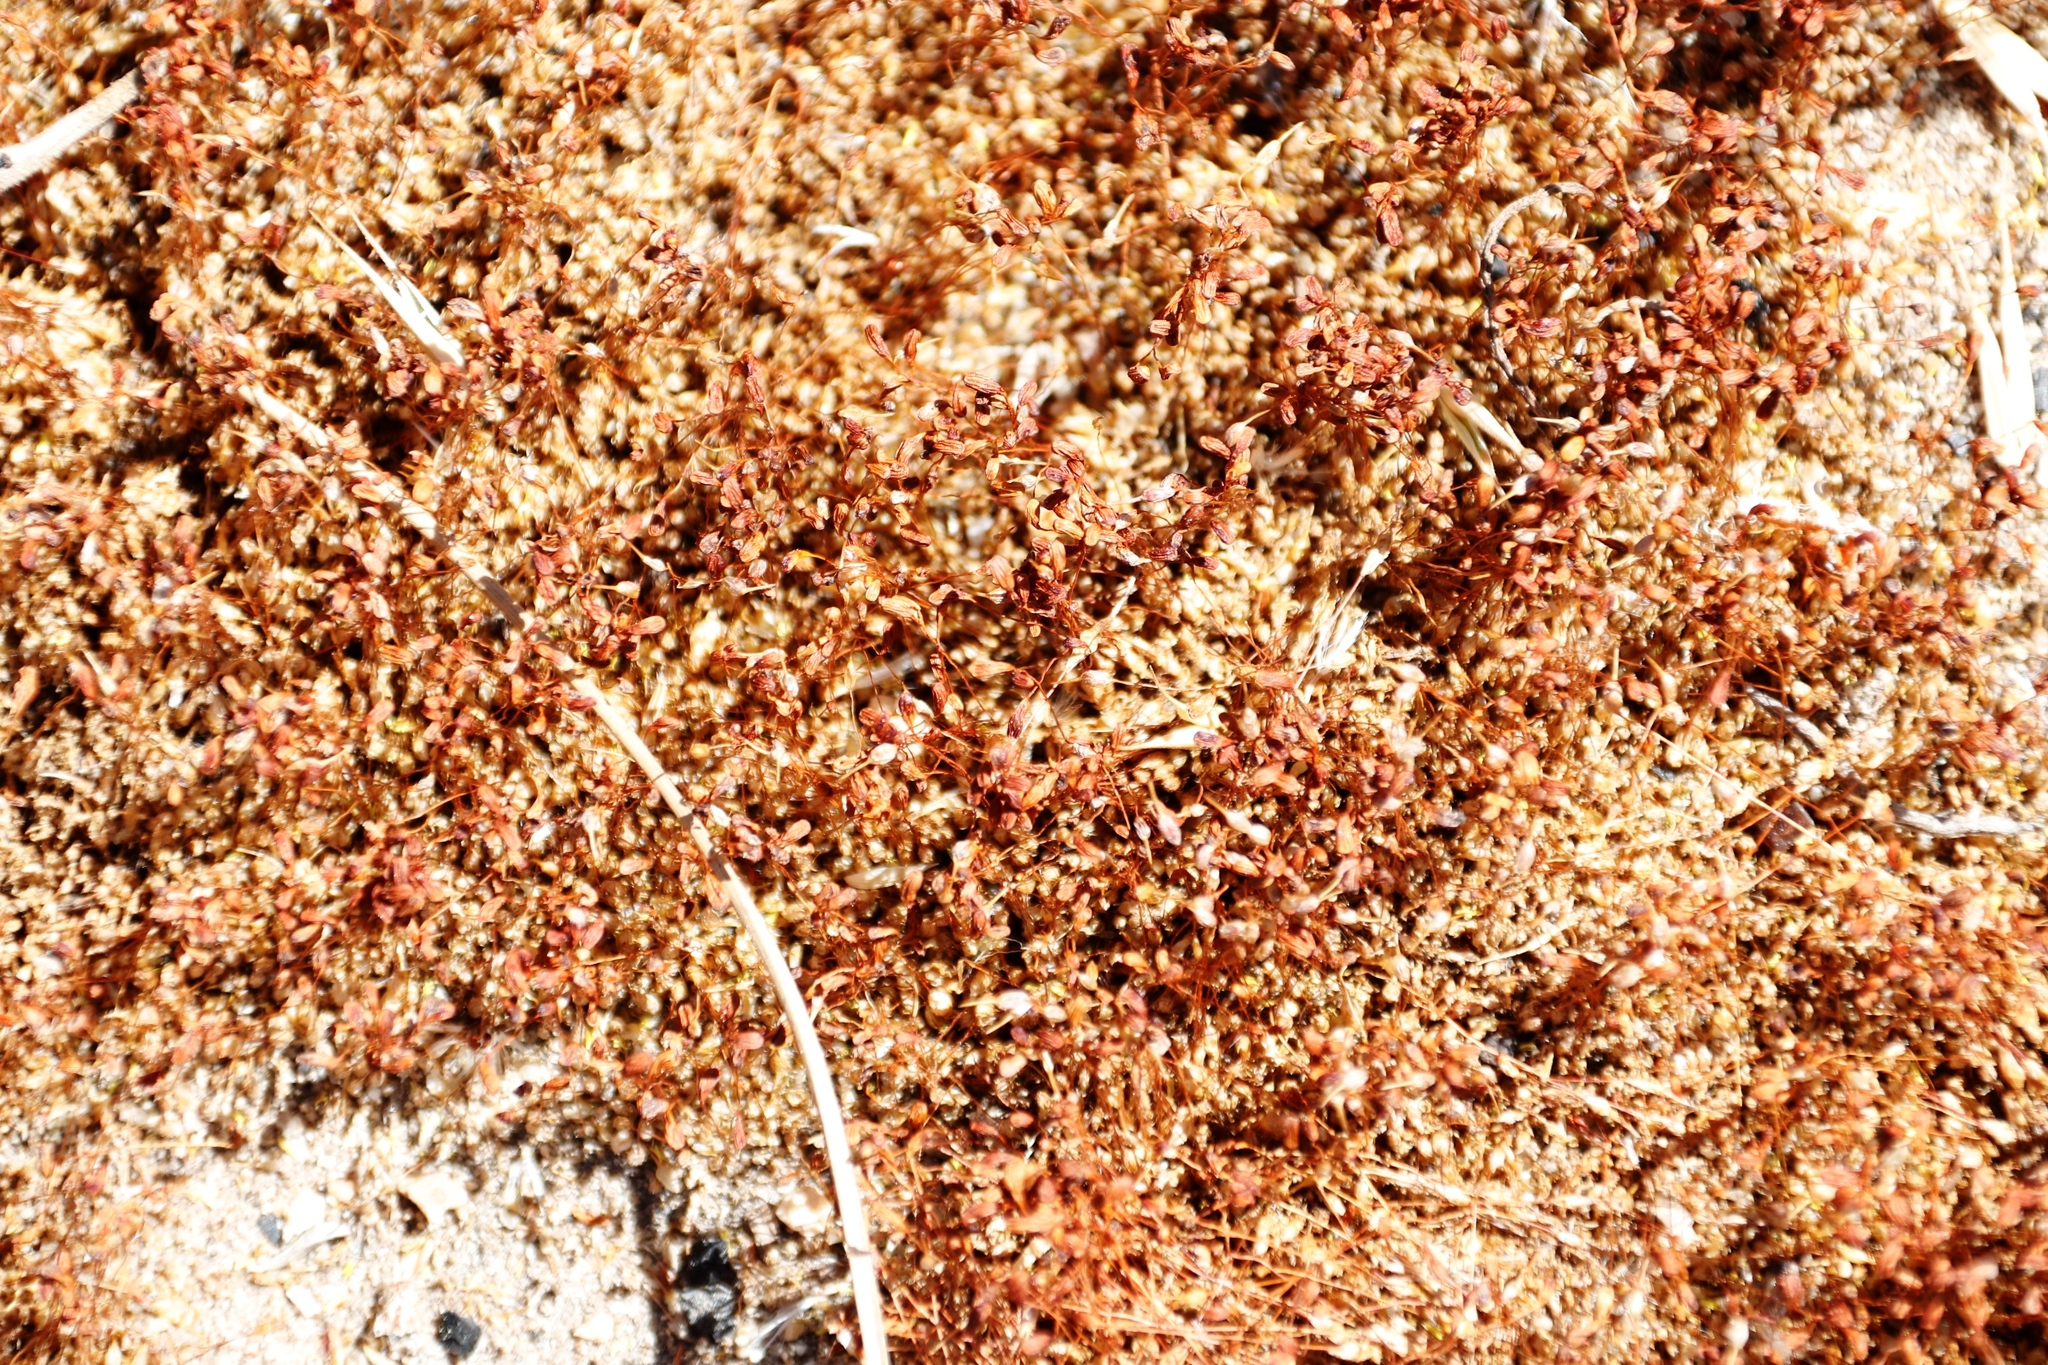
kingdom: Plantae
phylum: Bryophyta
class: Bryopsida
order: Funariales
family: Funariaceae
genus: Funaria
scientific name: Funaria hygrometrica
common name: Common cord moss
